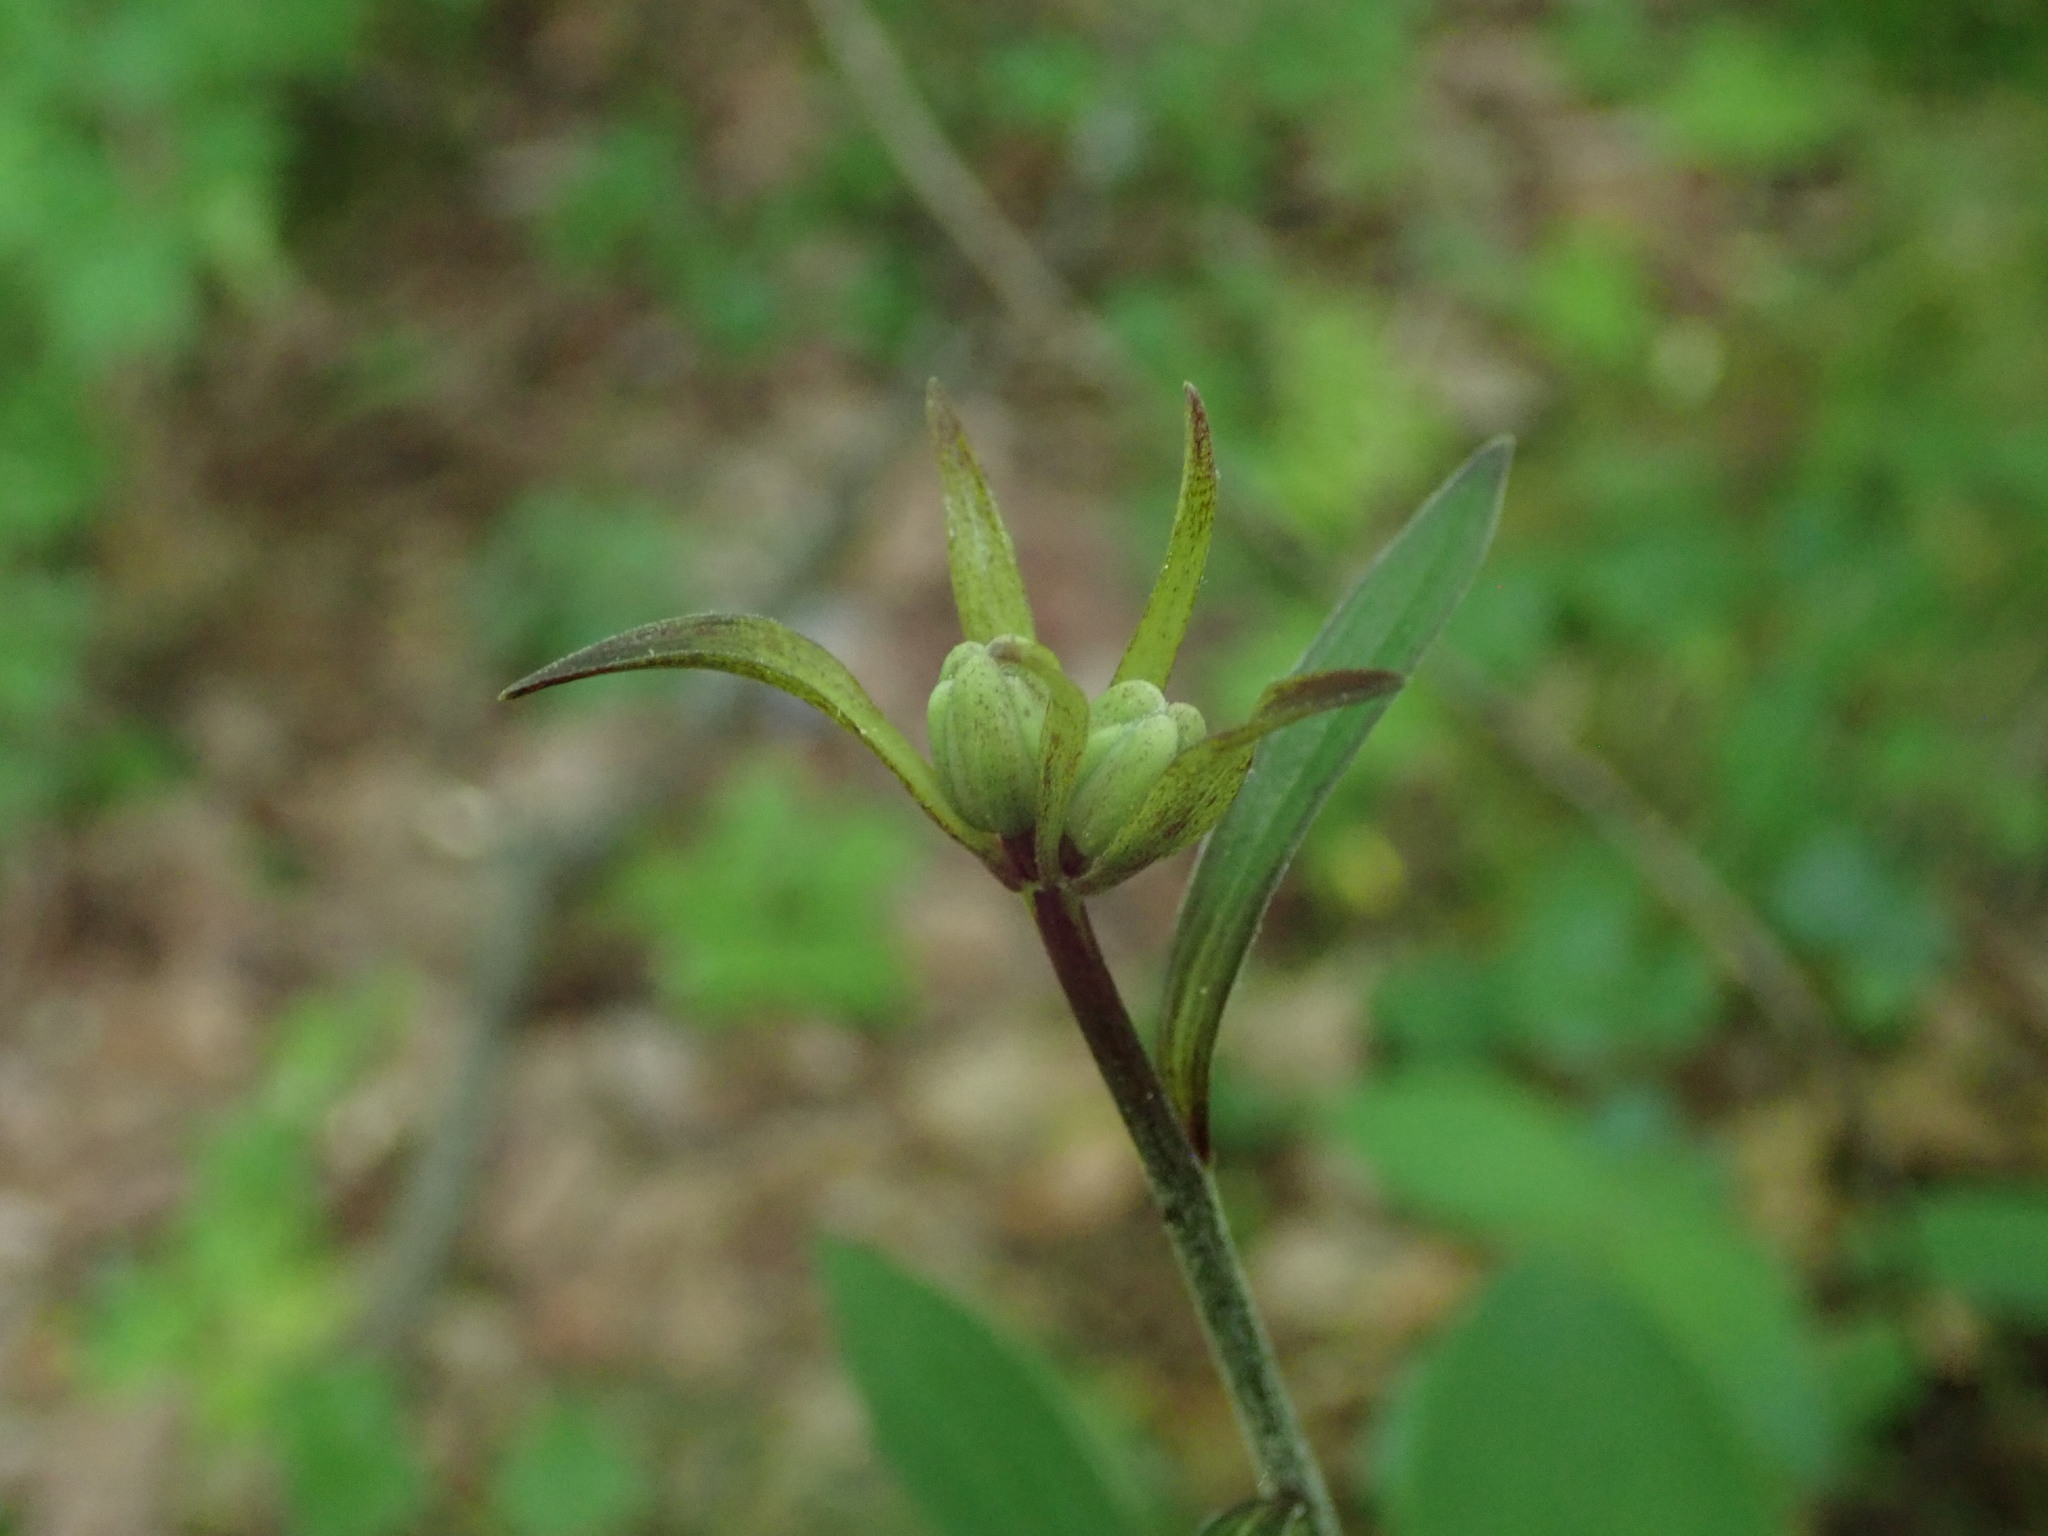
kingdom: Plantae
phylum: Tracheophyta
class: Liliopsida
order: Liliales
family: Liliaceae
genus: Lilium
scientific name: Lilium martagon
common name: Martagon lily
